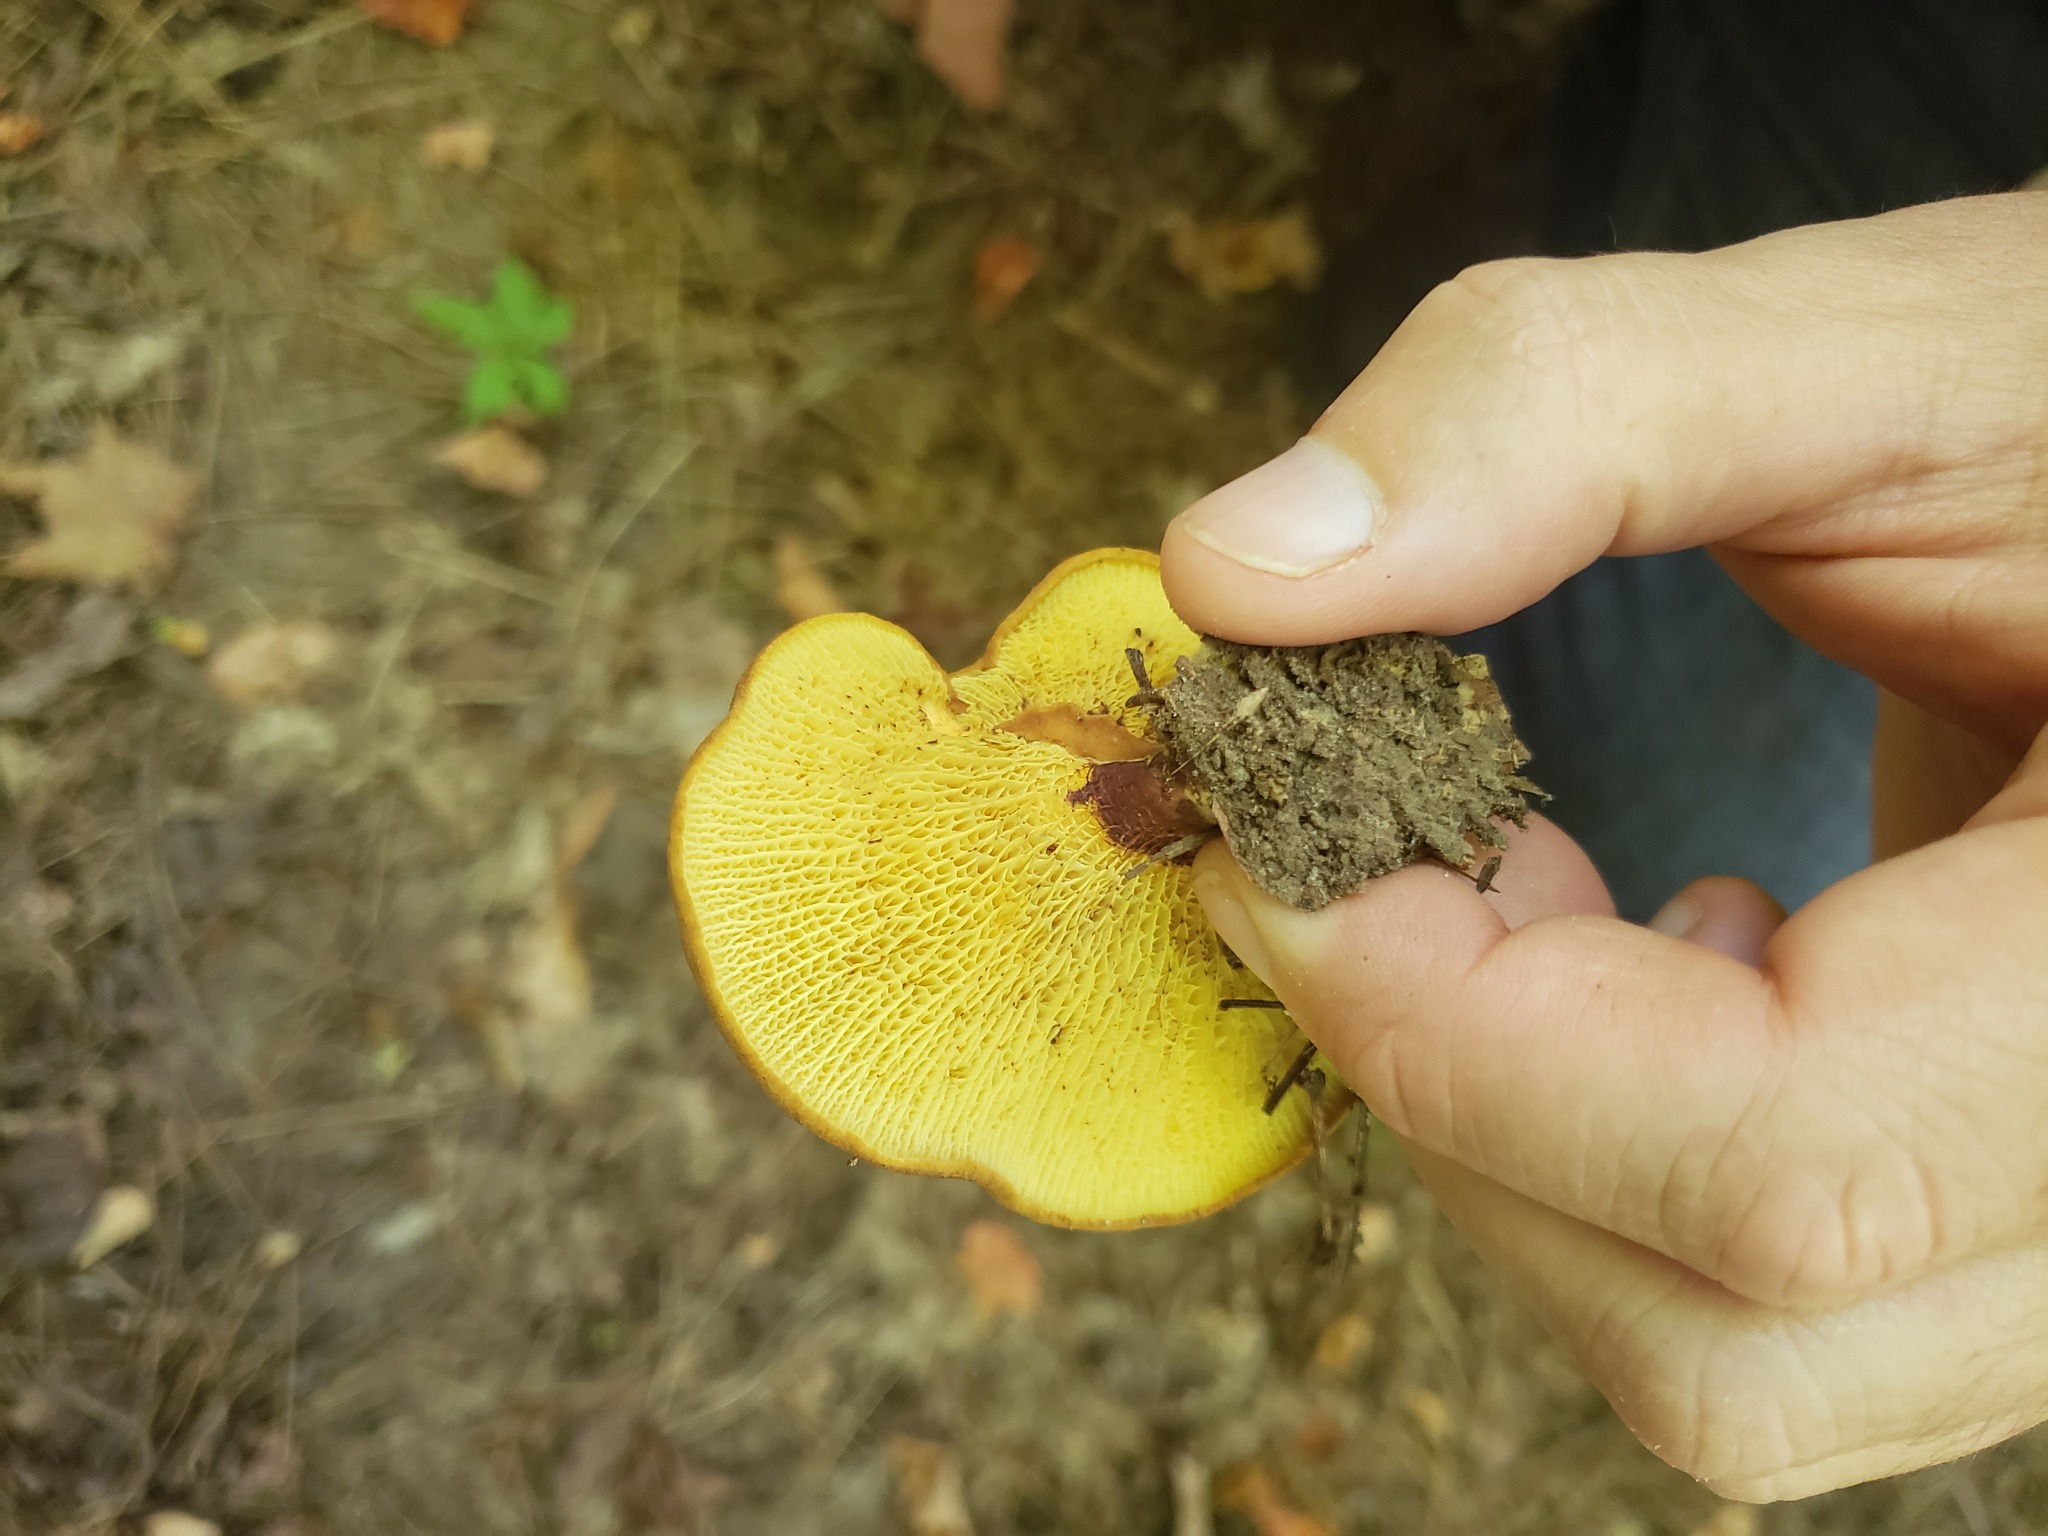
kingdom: Fungi
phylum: Basidiomycota
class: Agaricomycetes
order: Boletales
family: Boletinellaceae
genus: Boletinellus
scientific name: Boletinellus merulioides
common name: Ash tree bolete
